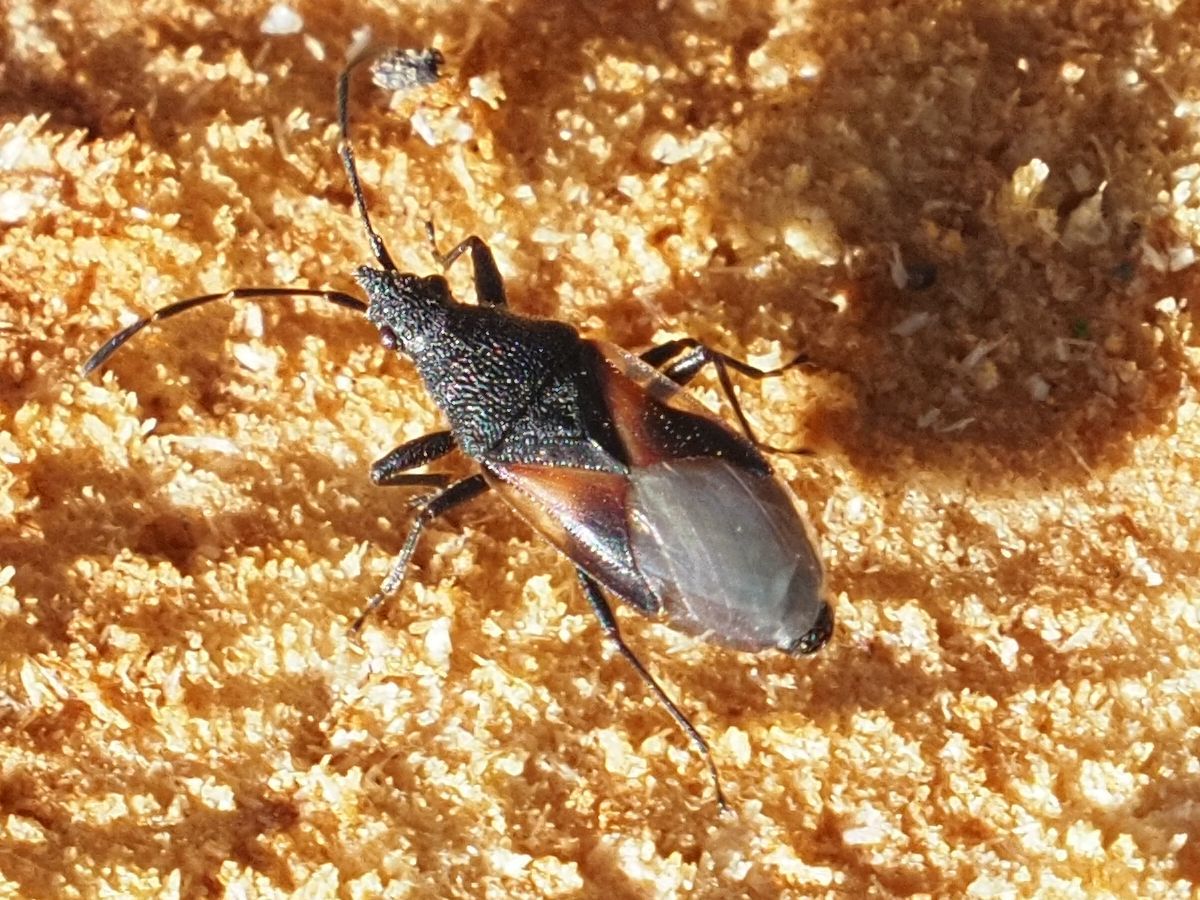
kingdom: Animalia
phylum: Arthropoda
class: Insecta
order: Hemiptera
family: Oxycarenidae
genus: Oxycarenus
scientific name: Oxycarenus lavaterae
